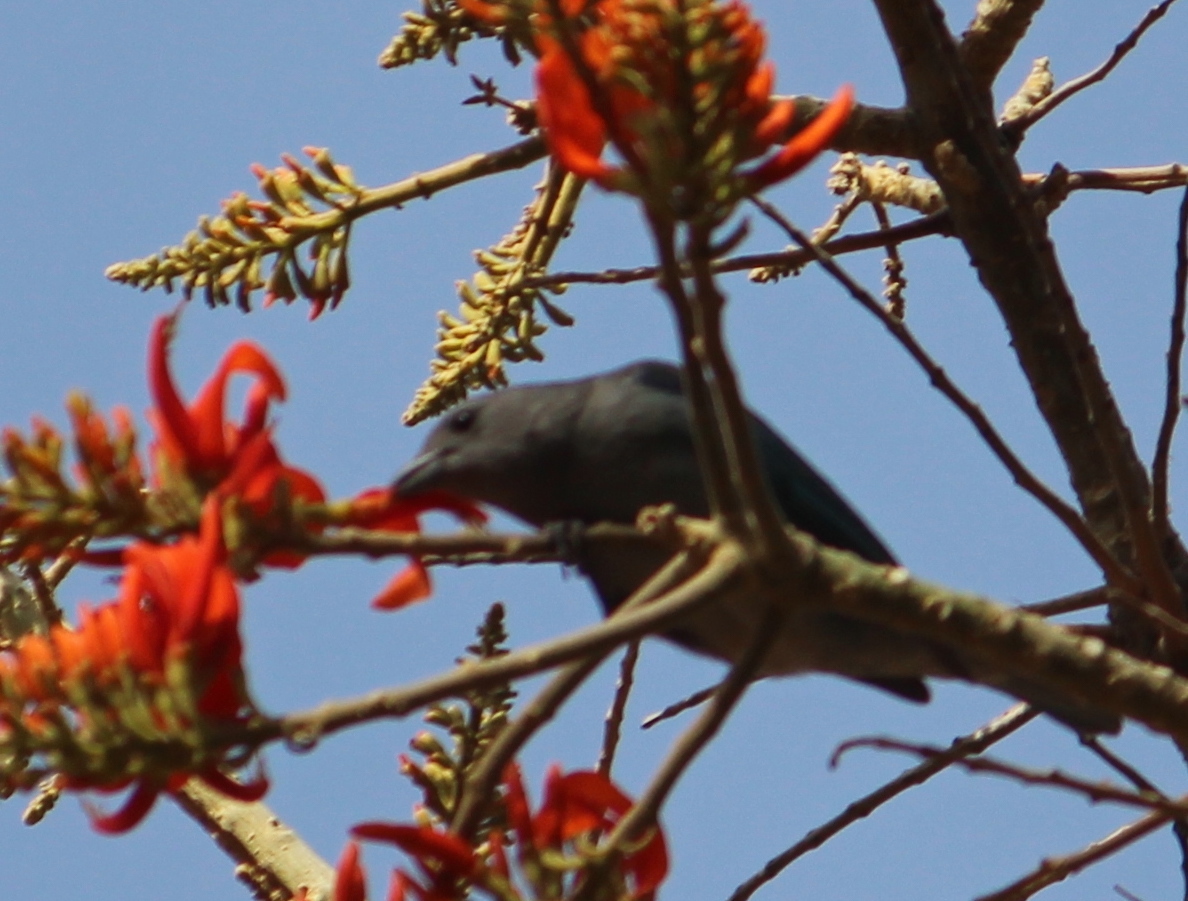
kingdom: Animalia
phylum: Chordata
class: Aves
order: Passeriformes
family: Thraupidae
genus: Thraupis
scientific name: Thraupis sayaca
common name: Sayaca tanager
